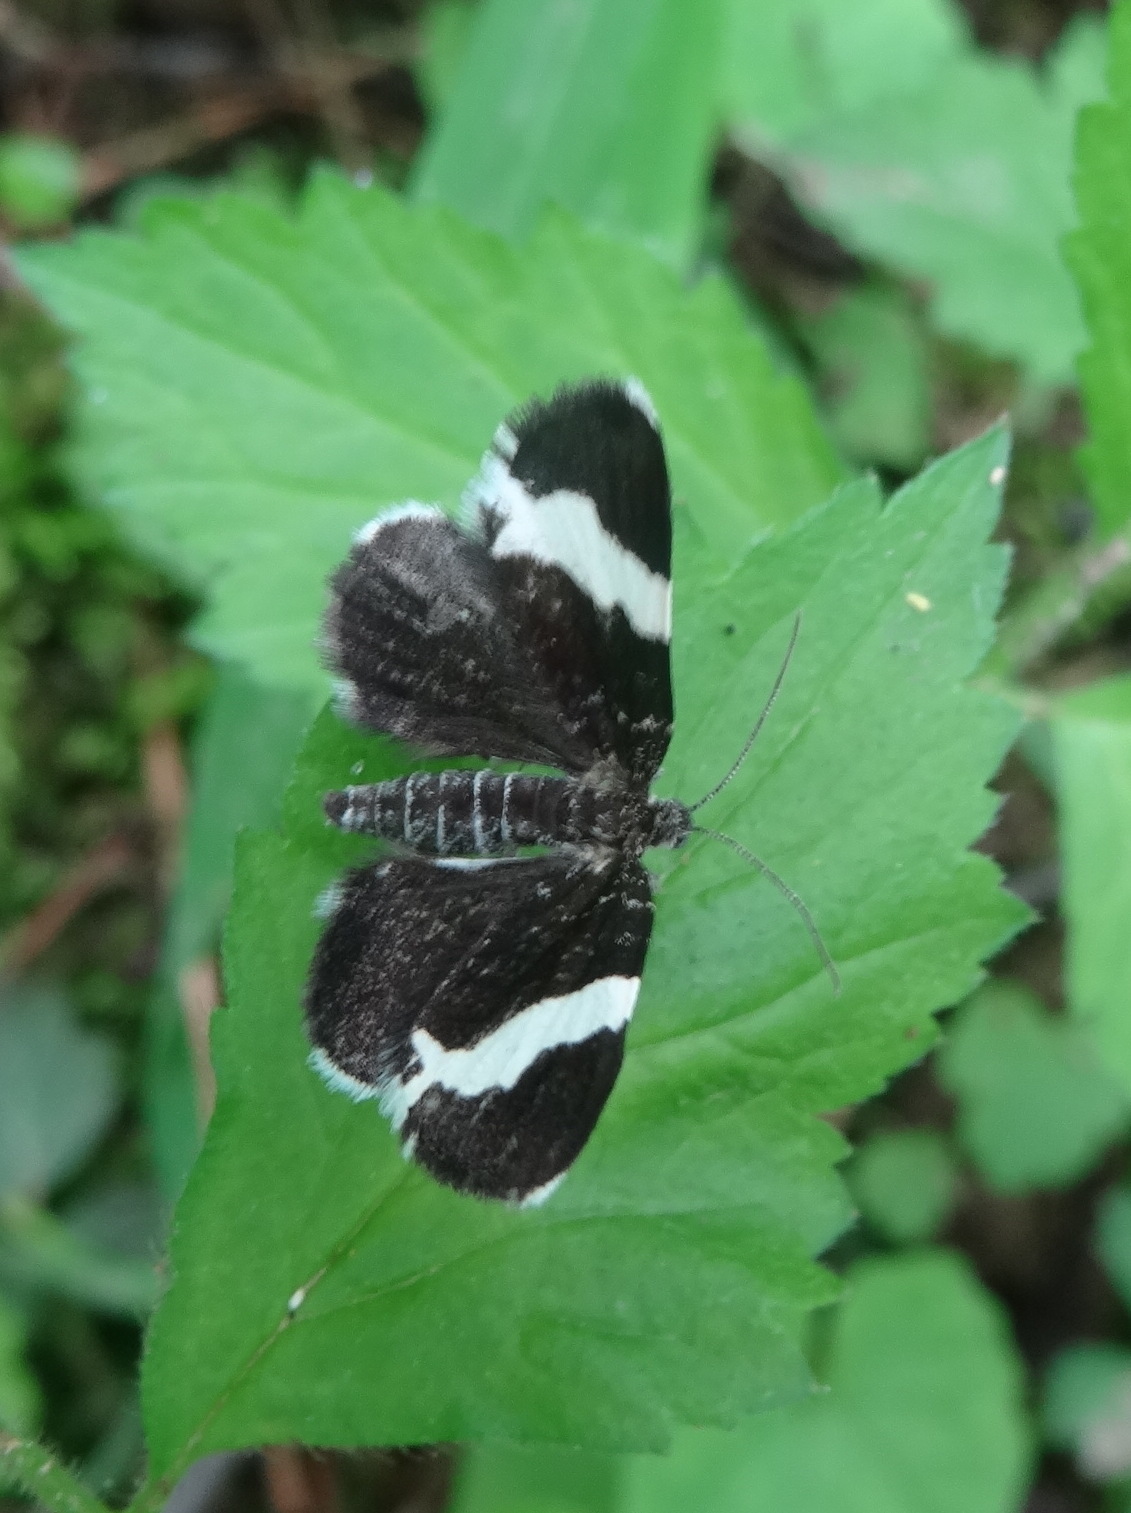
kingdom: Animalia
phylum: Arthropoda
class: Insecta
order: Lepidoptera
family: Geometridae
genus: Trichodezia
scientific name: Trichodezia albovittata
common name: White striped black
